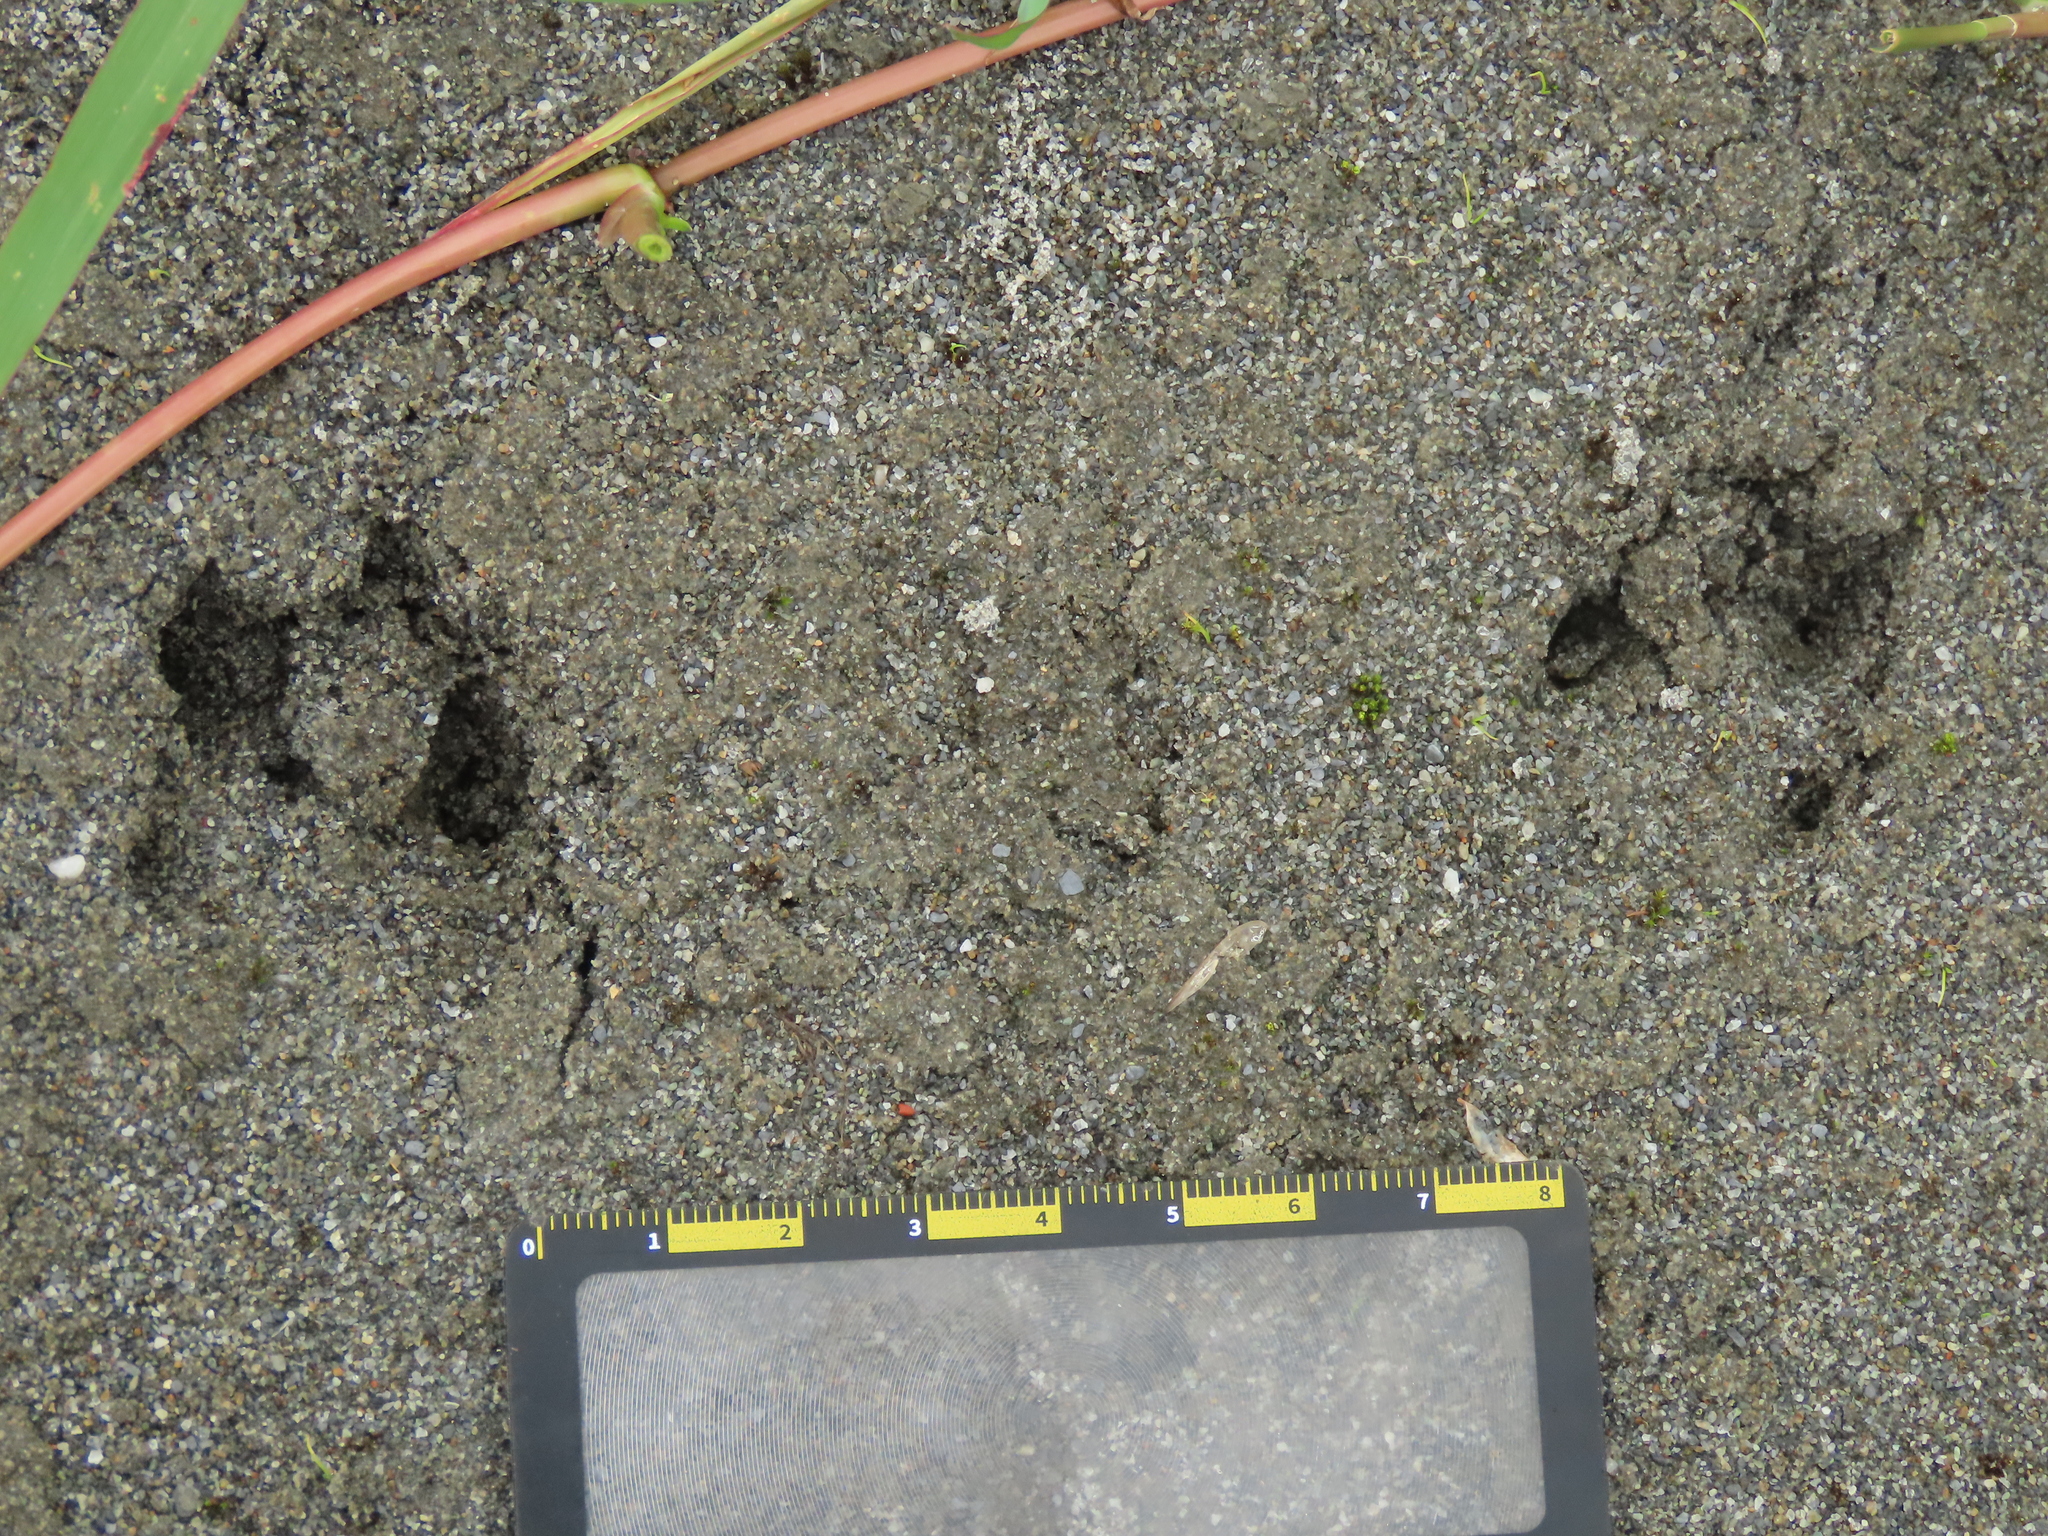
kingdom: Animalia
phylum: Chordata
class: Mammalia
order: Lagomorpha
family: Leporidae
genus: Lepus
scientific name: Lepus sinensis
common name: Chinese hare
